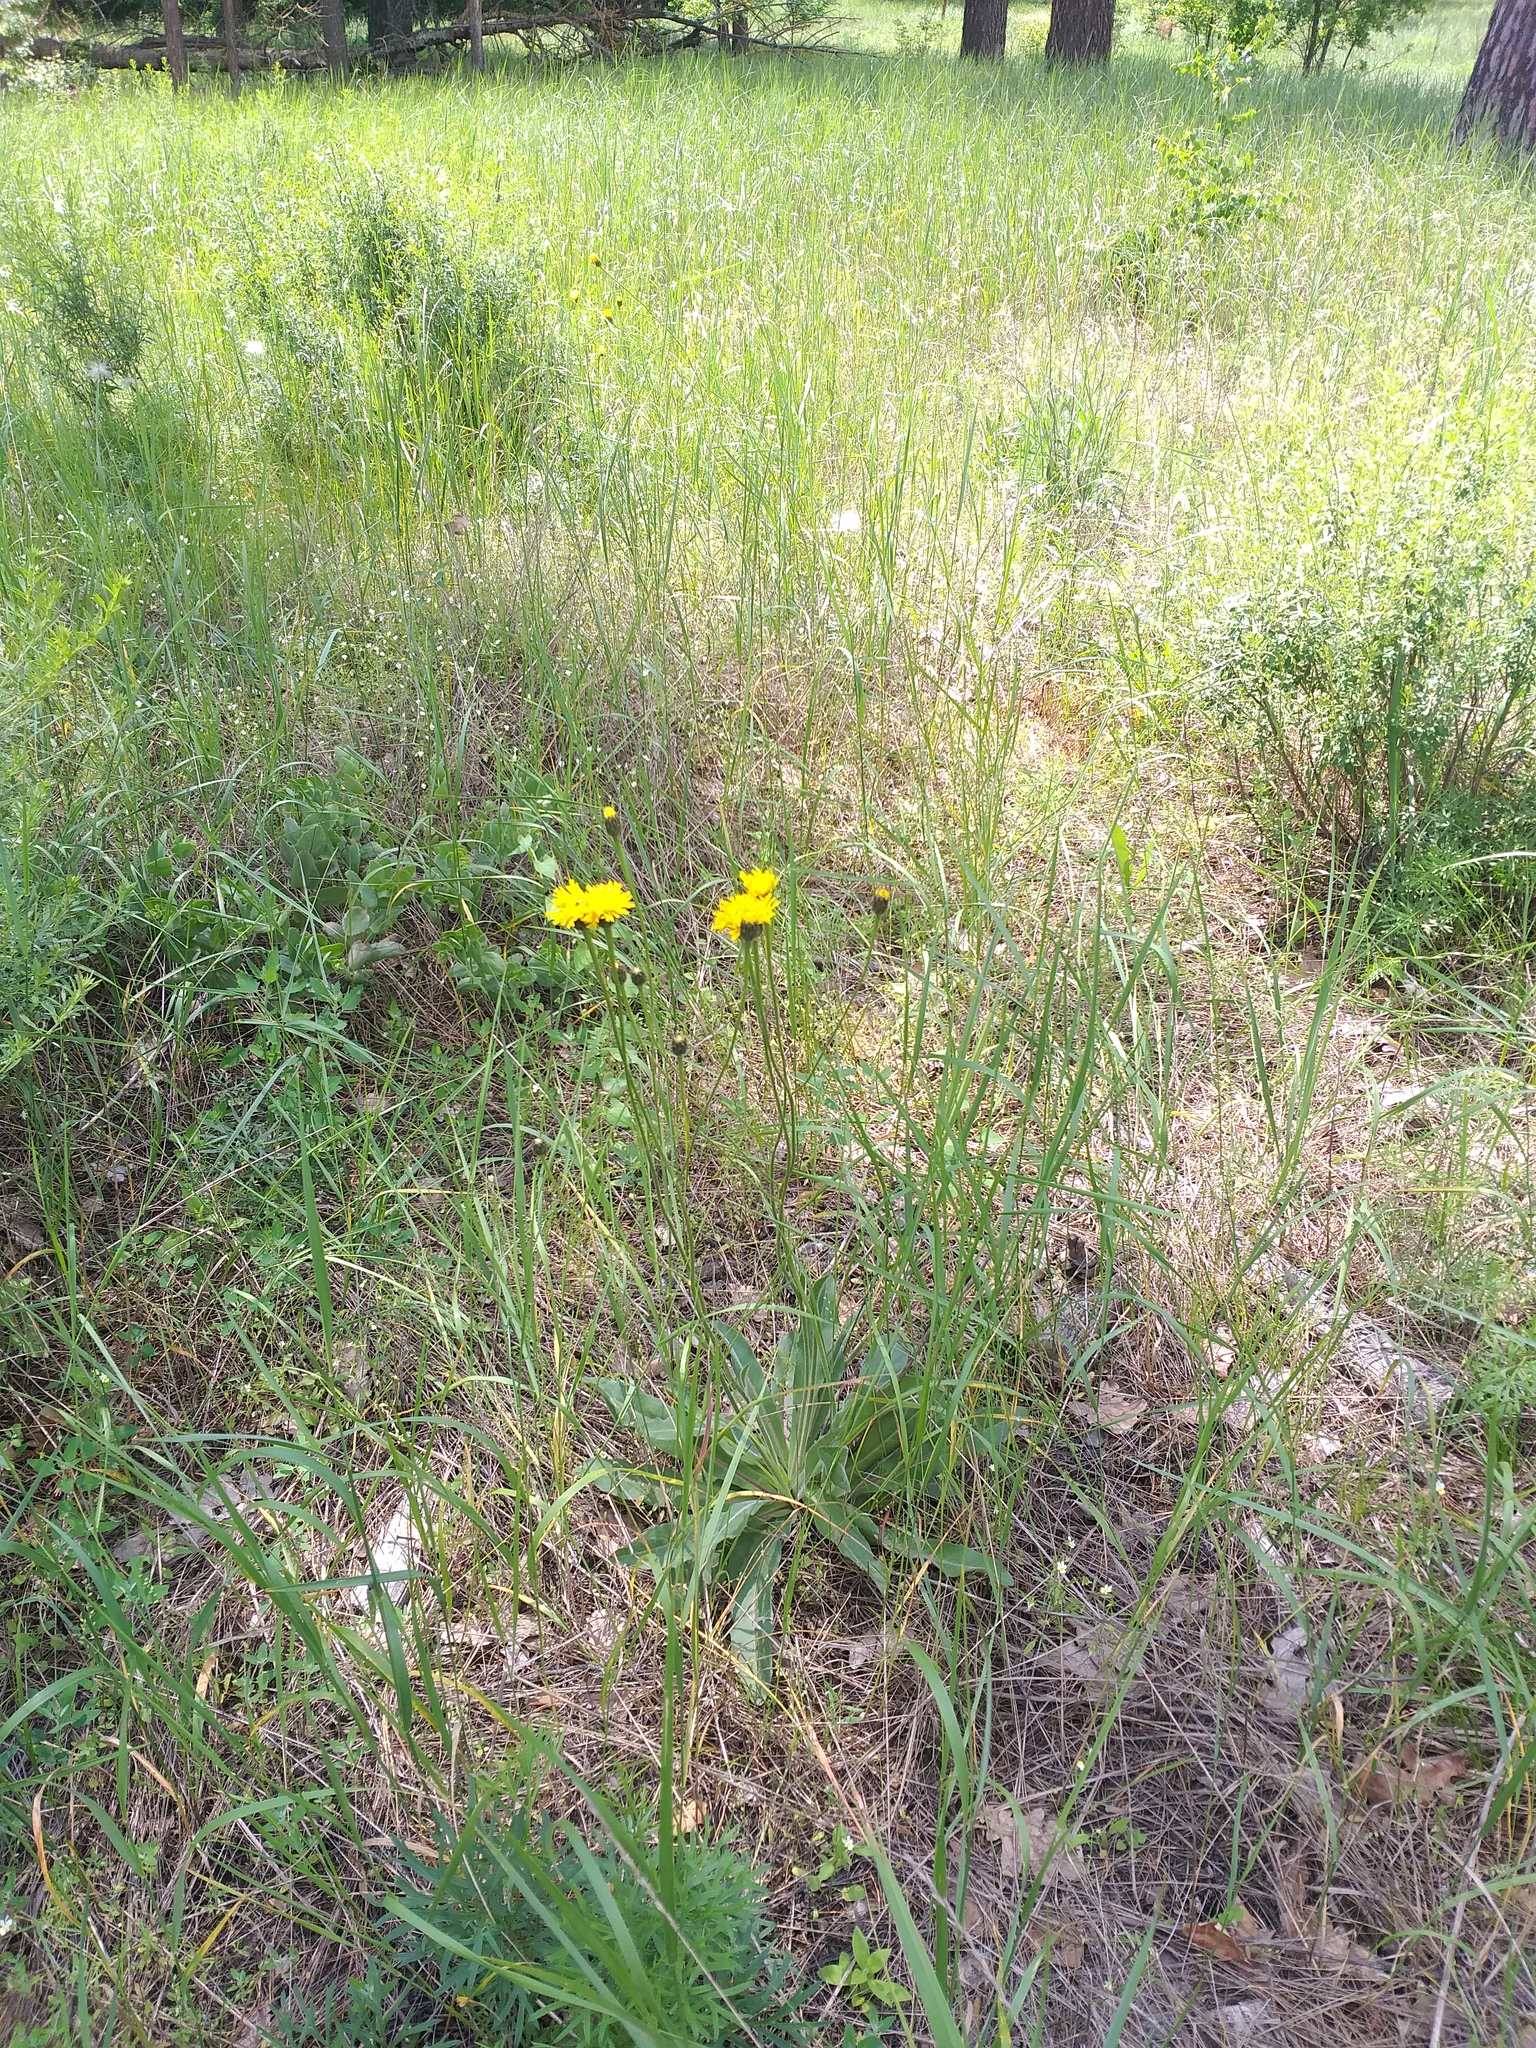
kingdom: Plantae
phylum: Tracheophyta
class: Magnoliopsida
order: Asterales
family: Asteraceae
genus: Trommsdorffia
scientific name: Trommsdorffia maculata
